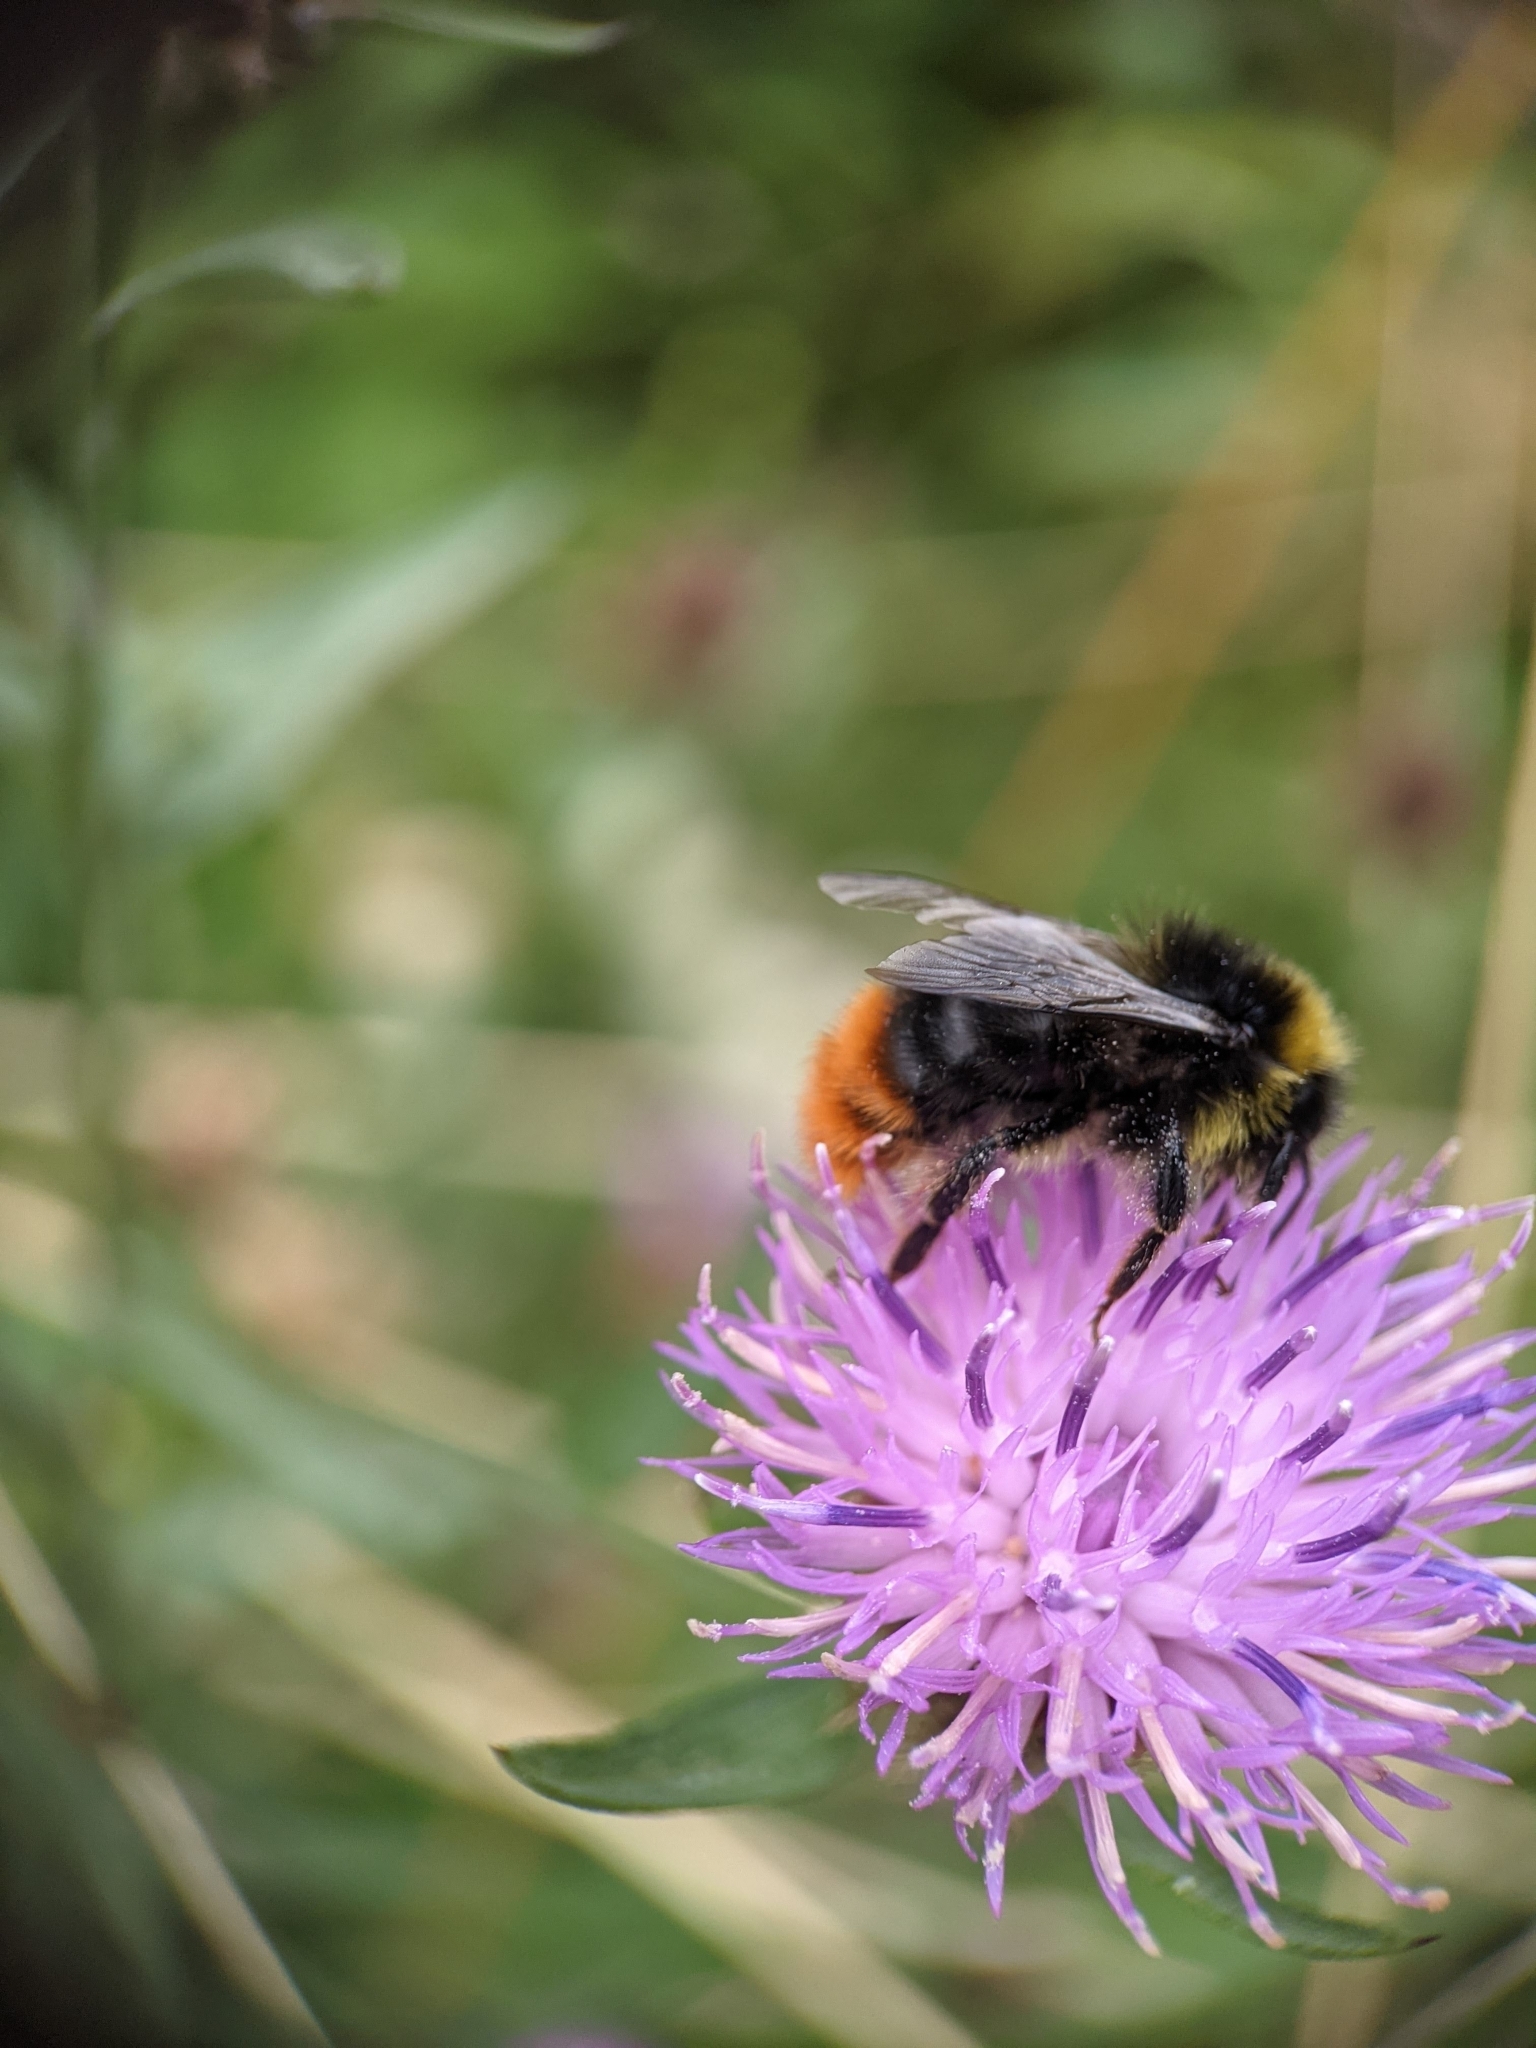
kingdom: Animalia
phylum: Arthropoda
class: Insecta
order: Hymenoptera
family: Apidae
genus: Bombus
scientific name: Bombus lapidarius
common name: Large red-tailed humble-bee
